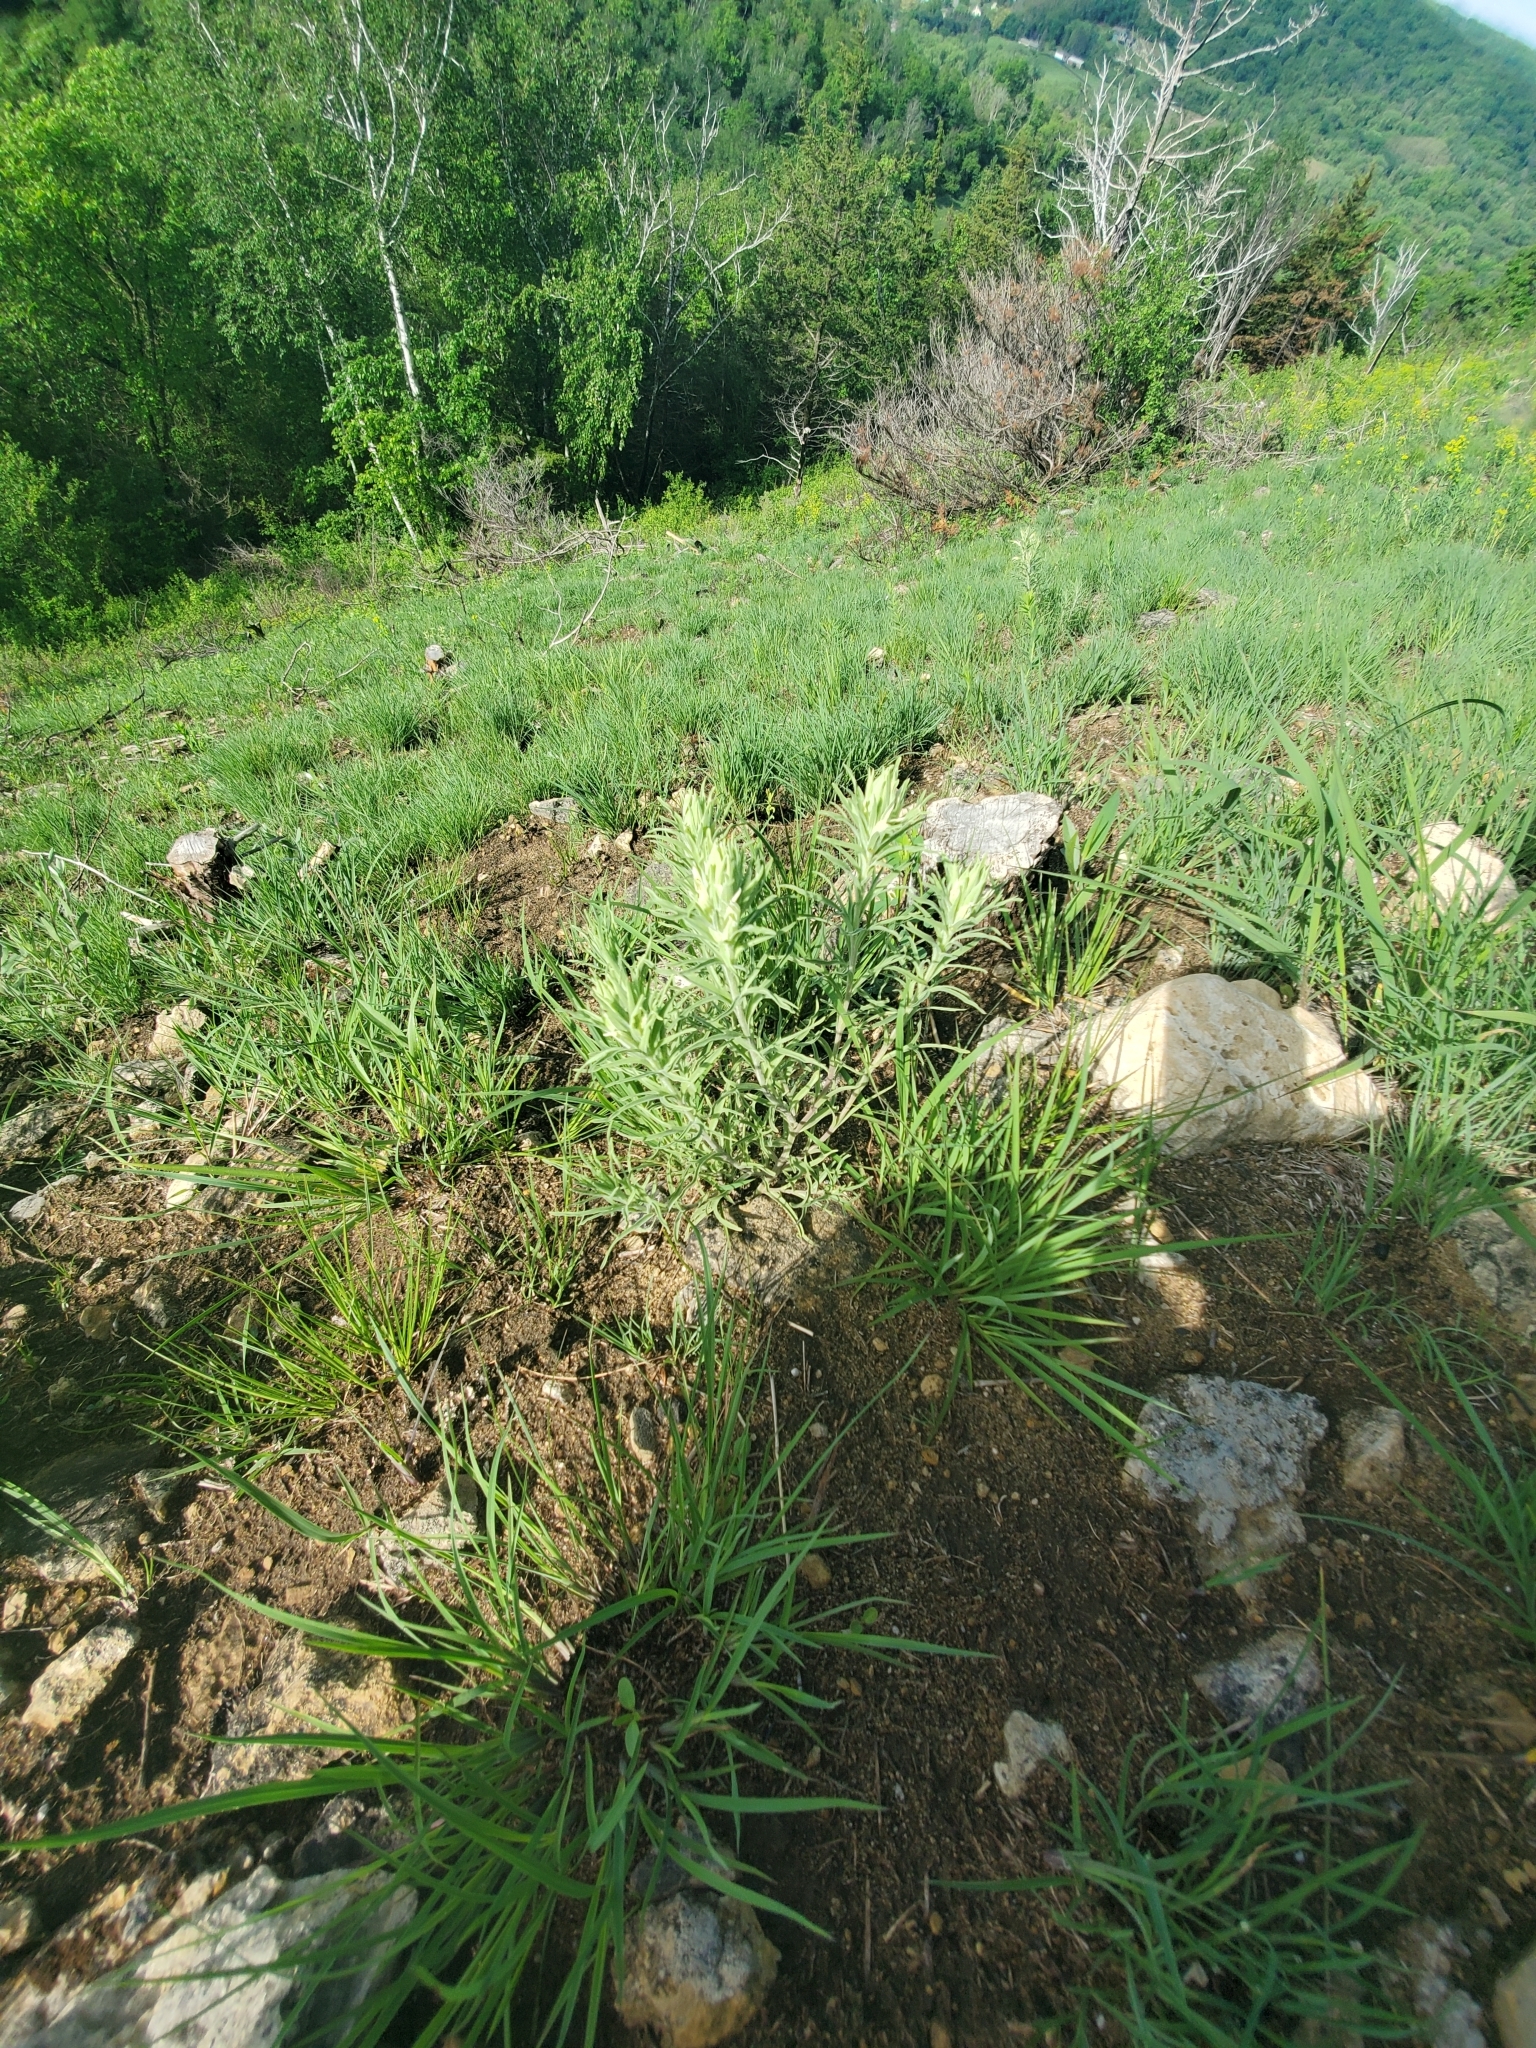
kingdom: Plantae
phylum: Tracheophyta
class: Magnoliopsida
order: Lamiales
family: Orobanchaceae
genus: Castilleja
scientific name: Castilleja sessiliflora
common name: Downy paintbrush
